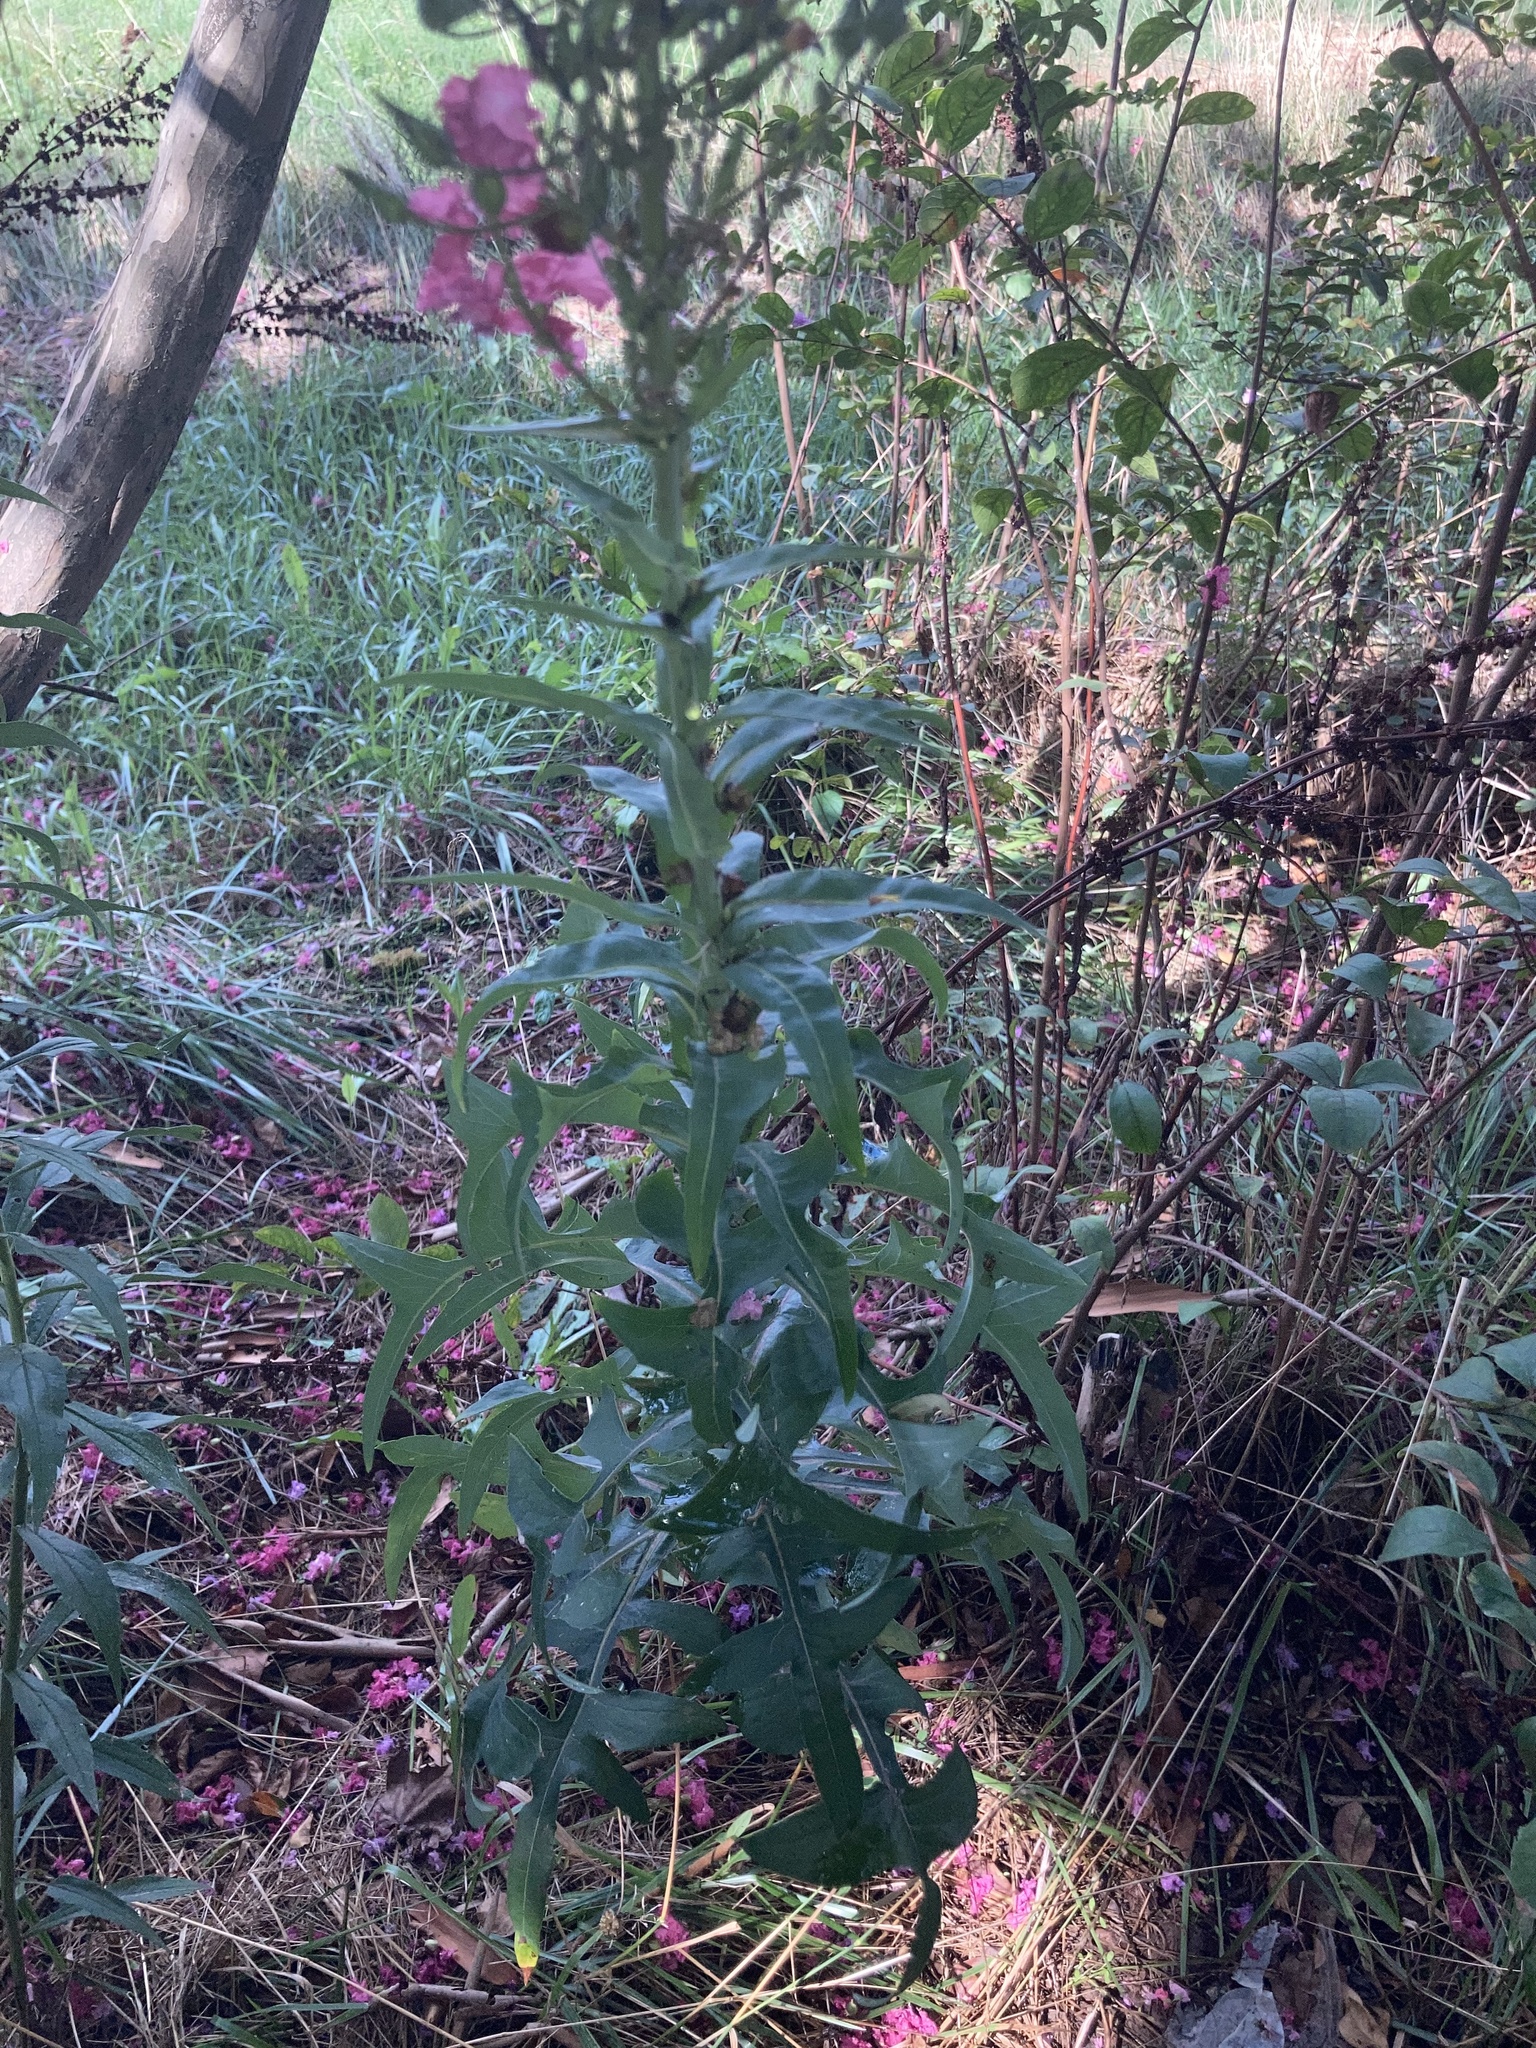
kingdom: Plantae
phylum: Tracheophyta
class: Magnoliopsida
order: Asterales
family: Asteraceae
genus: Lactuca
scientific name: Lactuca canadensis
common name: Canada lettuce
